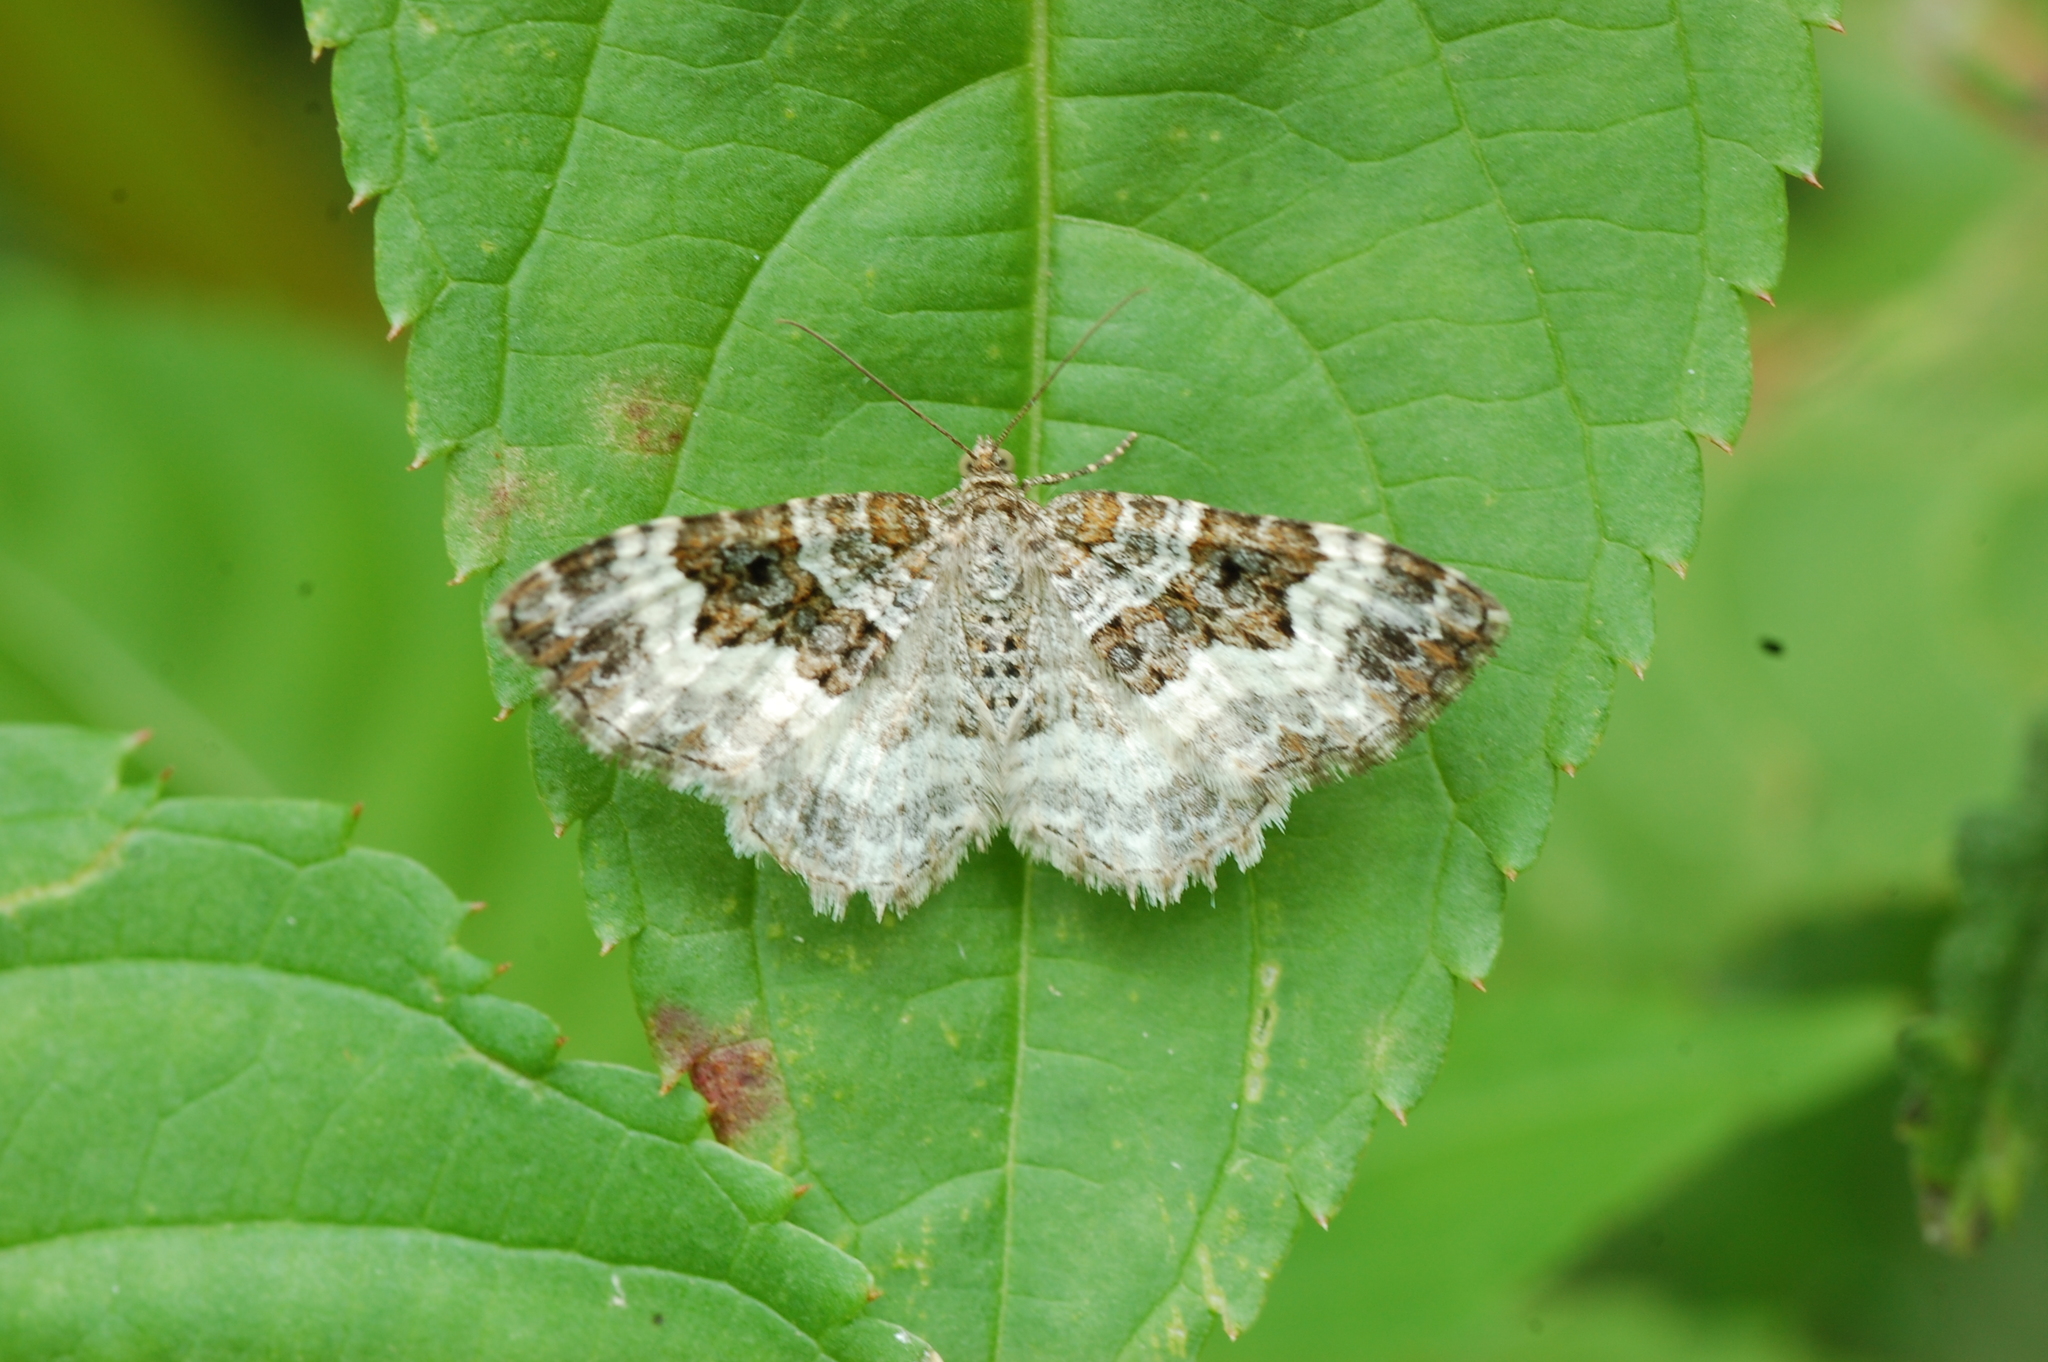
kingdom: Animalia
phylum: Arthropoda
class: Insecta
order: Lepidoptera
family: Geometridae
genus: Epirrhoe
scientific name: Epirrhoe alternata
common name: Common carpet
